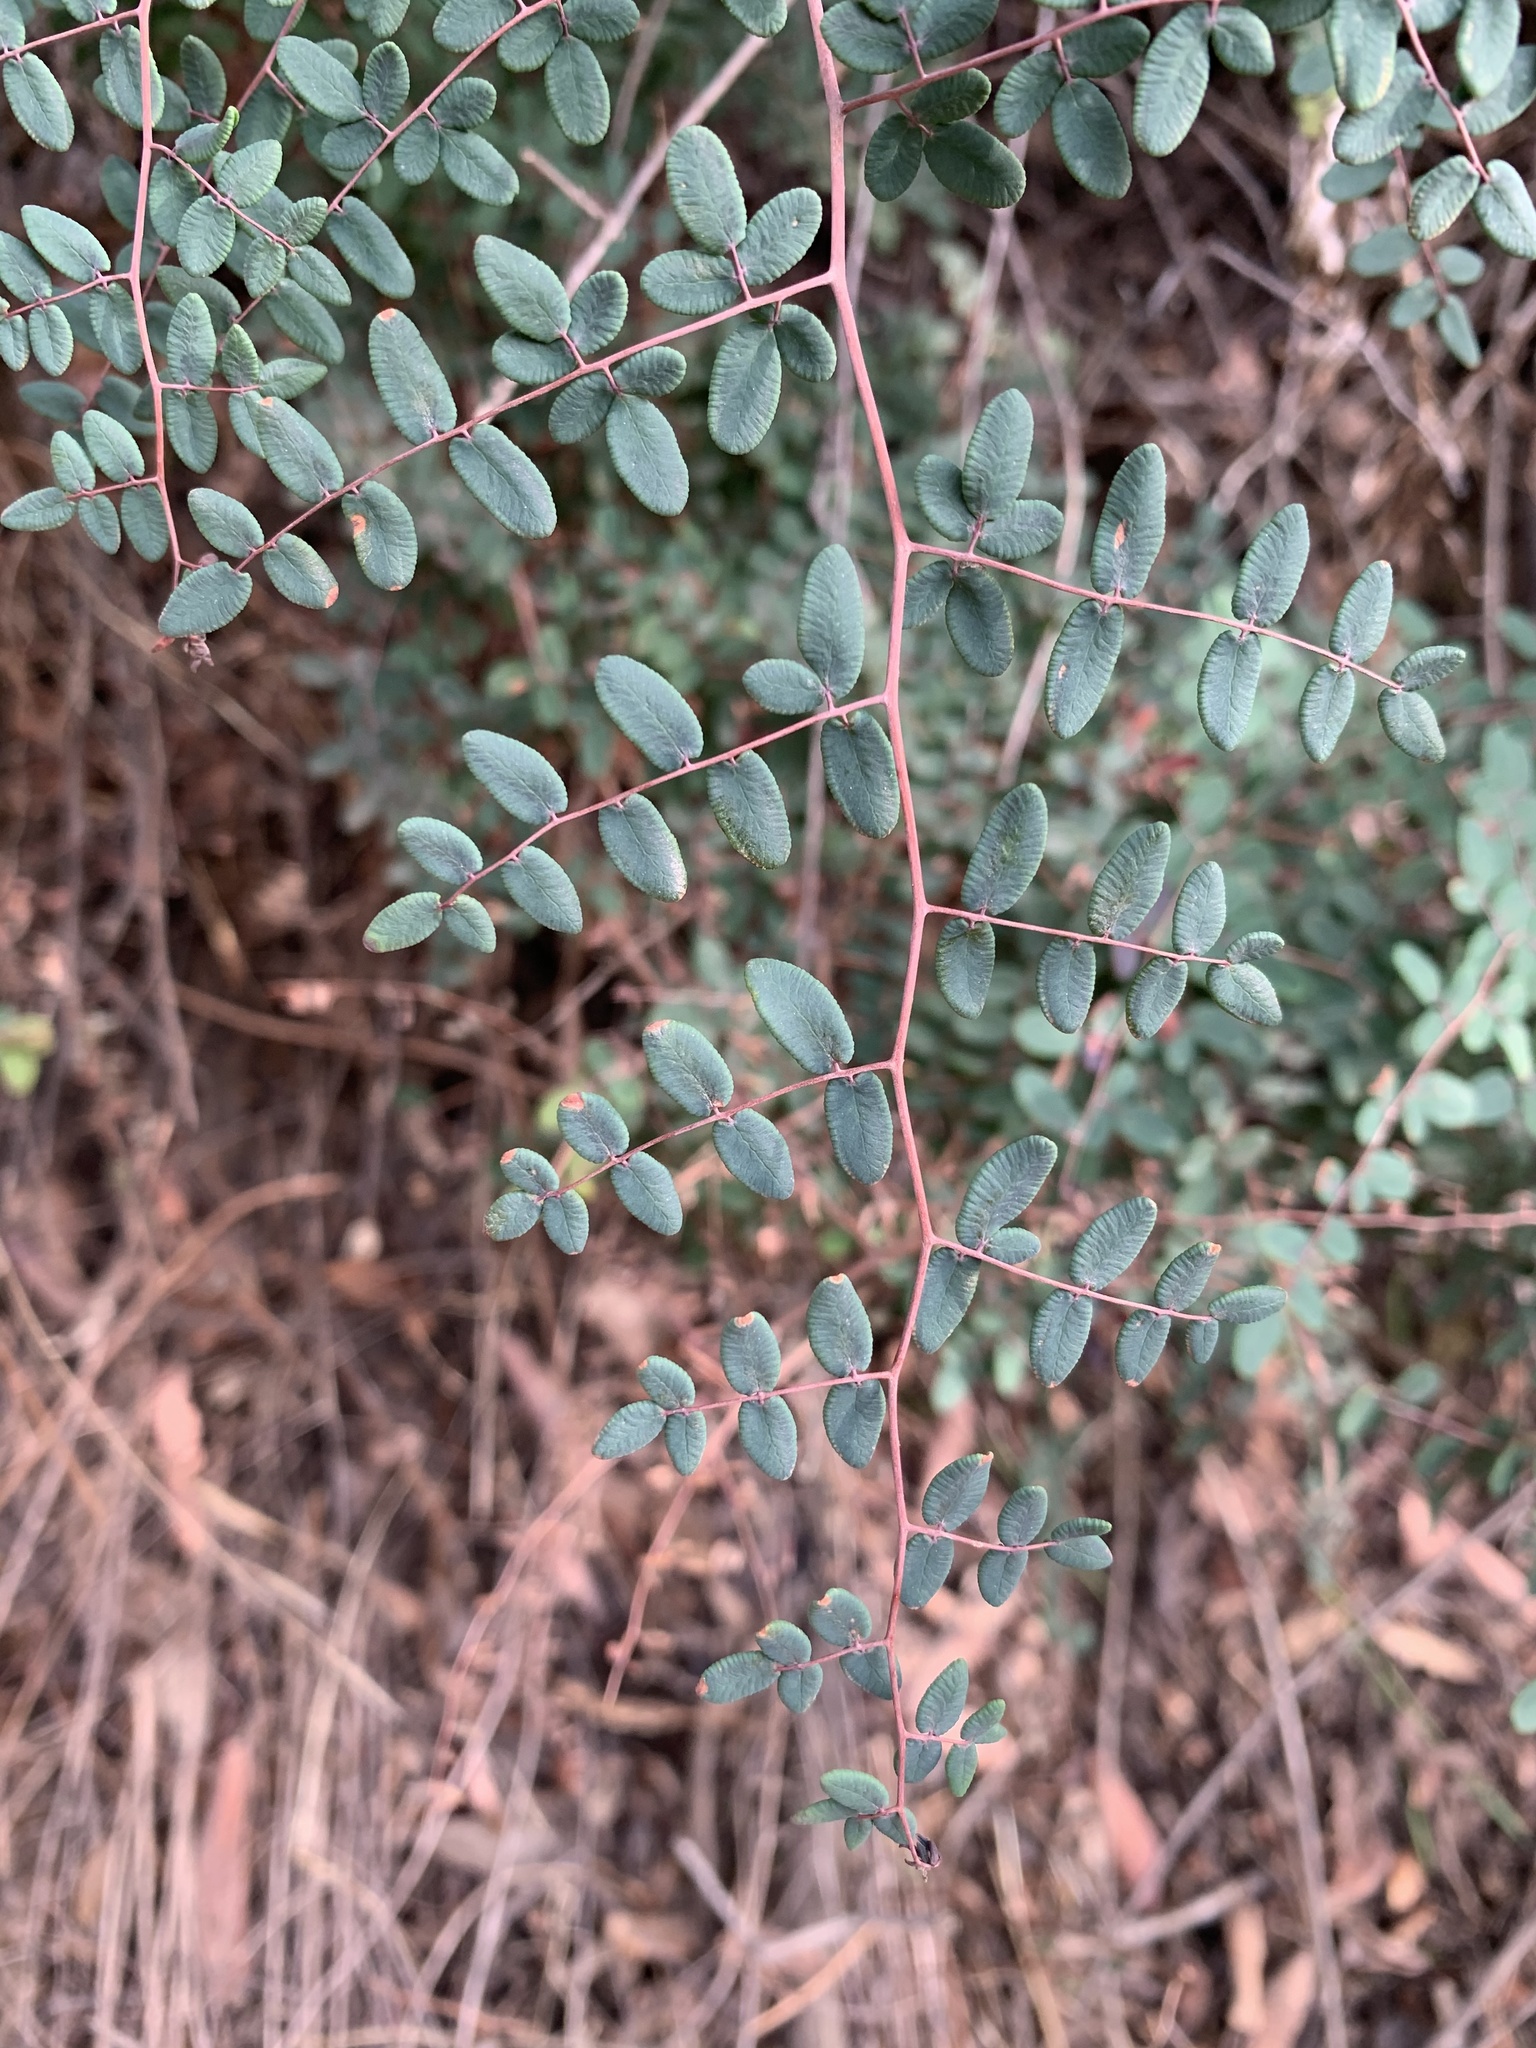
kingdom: Plantae
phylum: Tracheophyta
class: Polypodiopsida
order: Polypodiales
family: Pteridaceae
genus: Pellaea
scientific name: Pellaea andromedifolia
